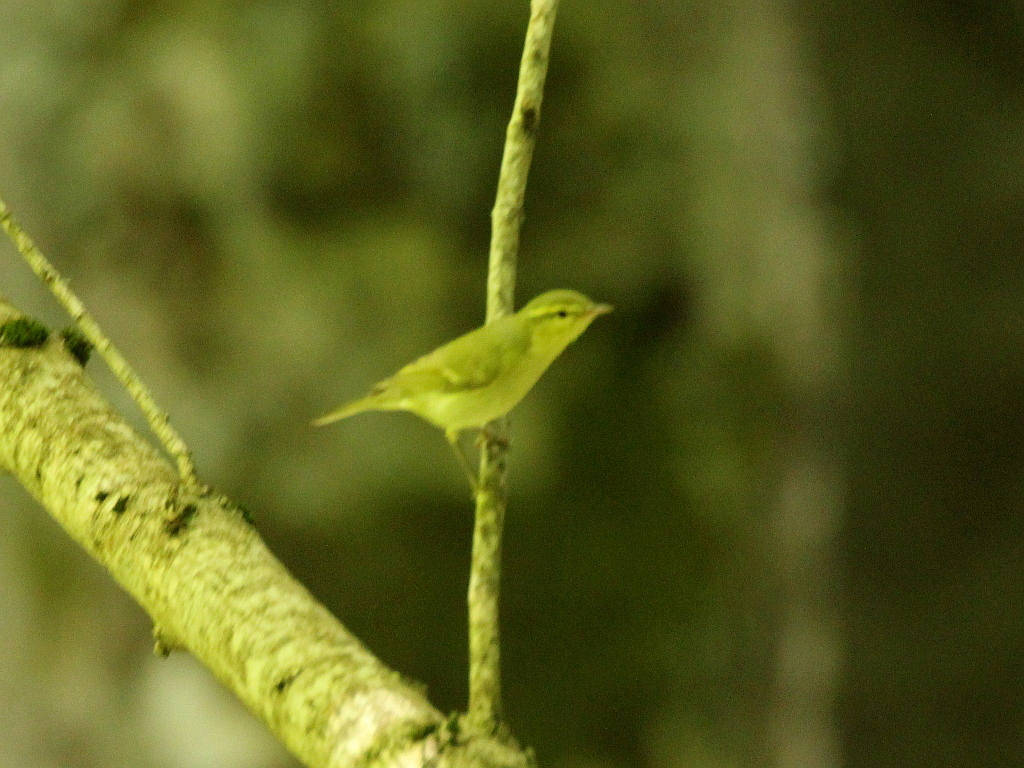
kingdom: Animalia
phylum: Chordata
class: Aves
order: Passeriformes
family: Phylloscopidae
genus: Phylloscopus
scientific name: Phylloscopus nitidus
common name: Green warbler
